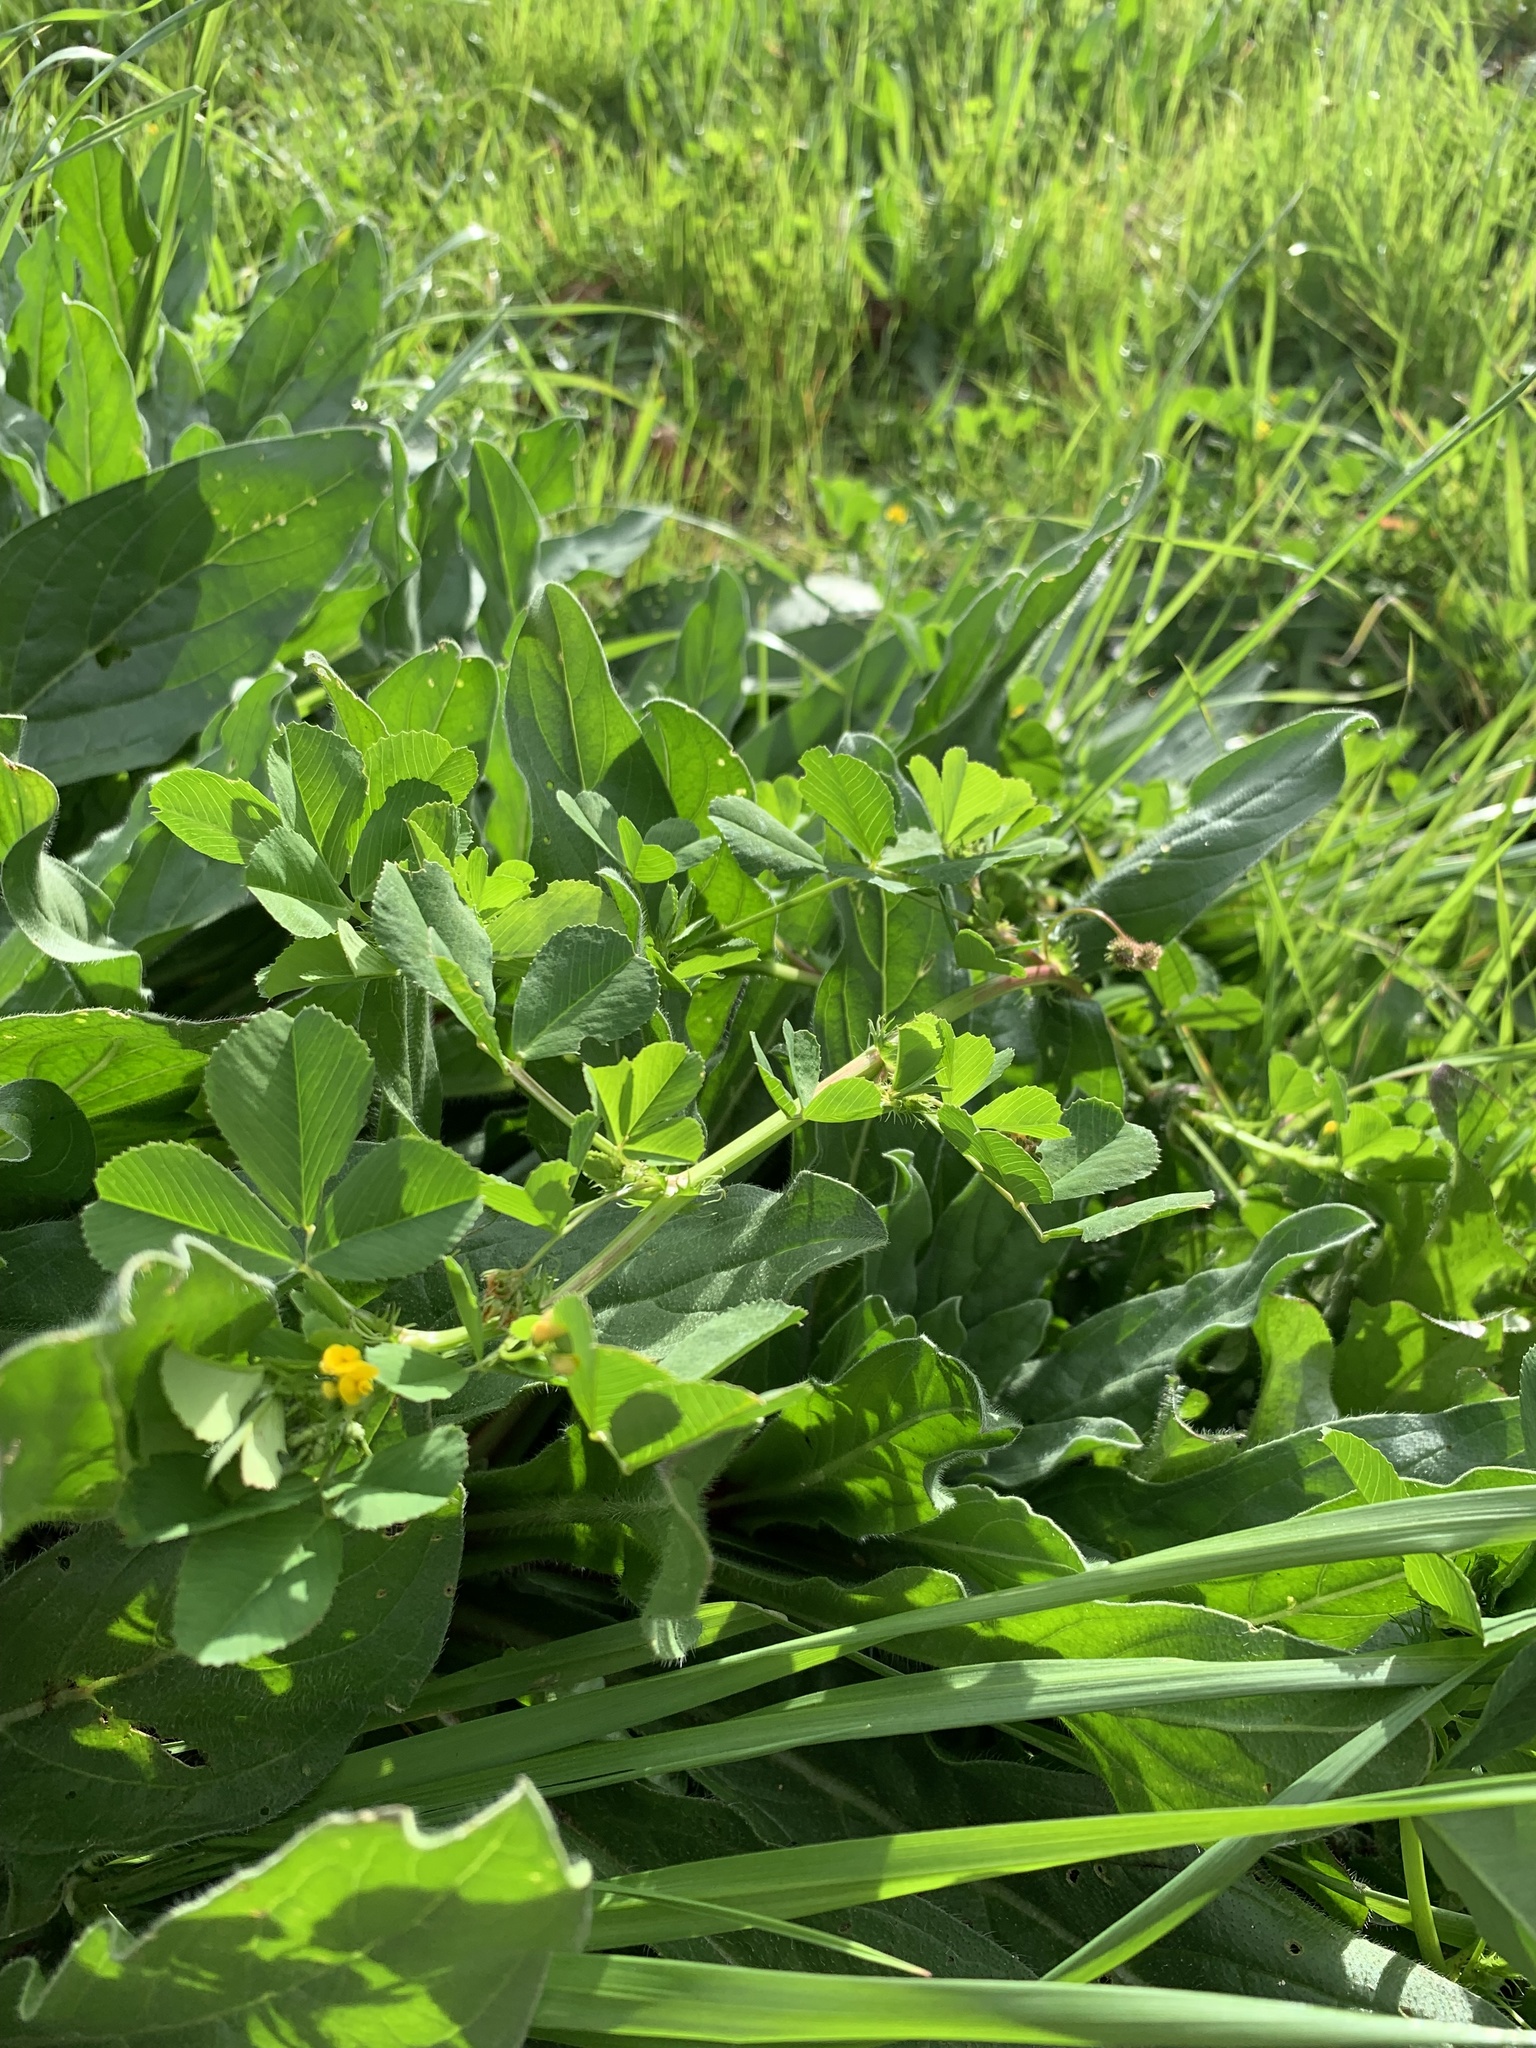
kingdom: Plantae
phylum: Tracheophyta
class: Magnoliopsida
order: Fabales
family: Fabaceae
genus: Medicago
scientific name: Medicago polymorpha
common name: Burclover
